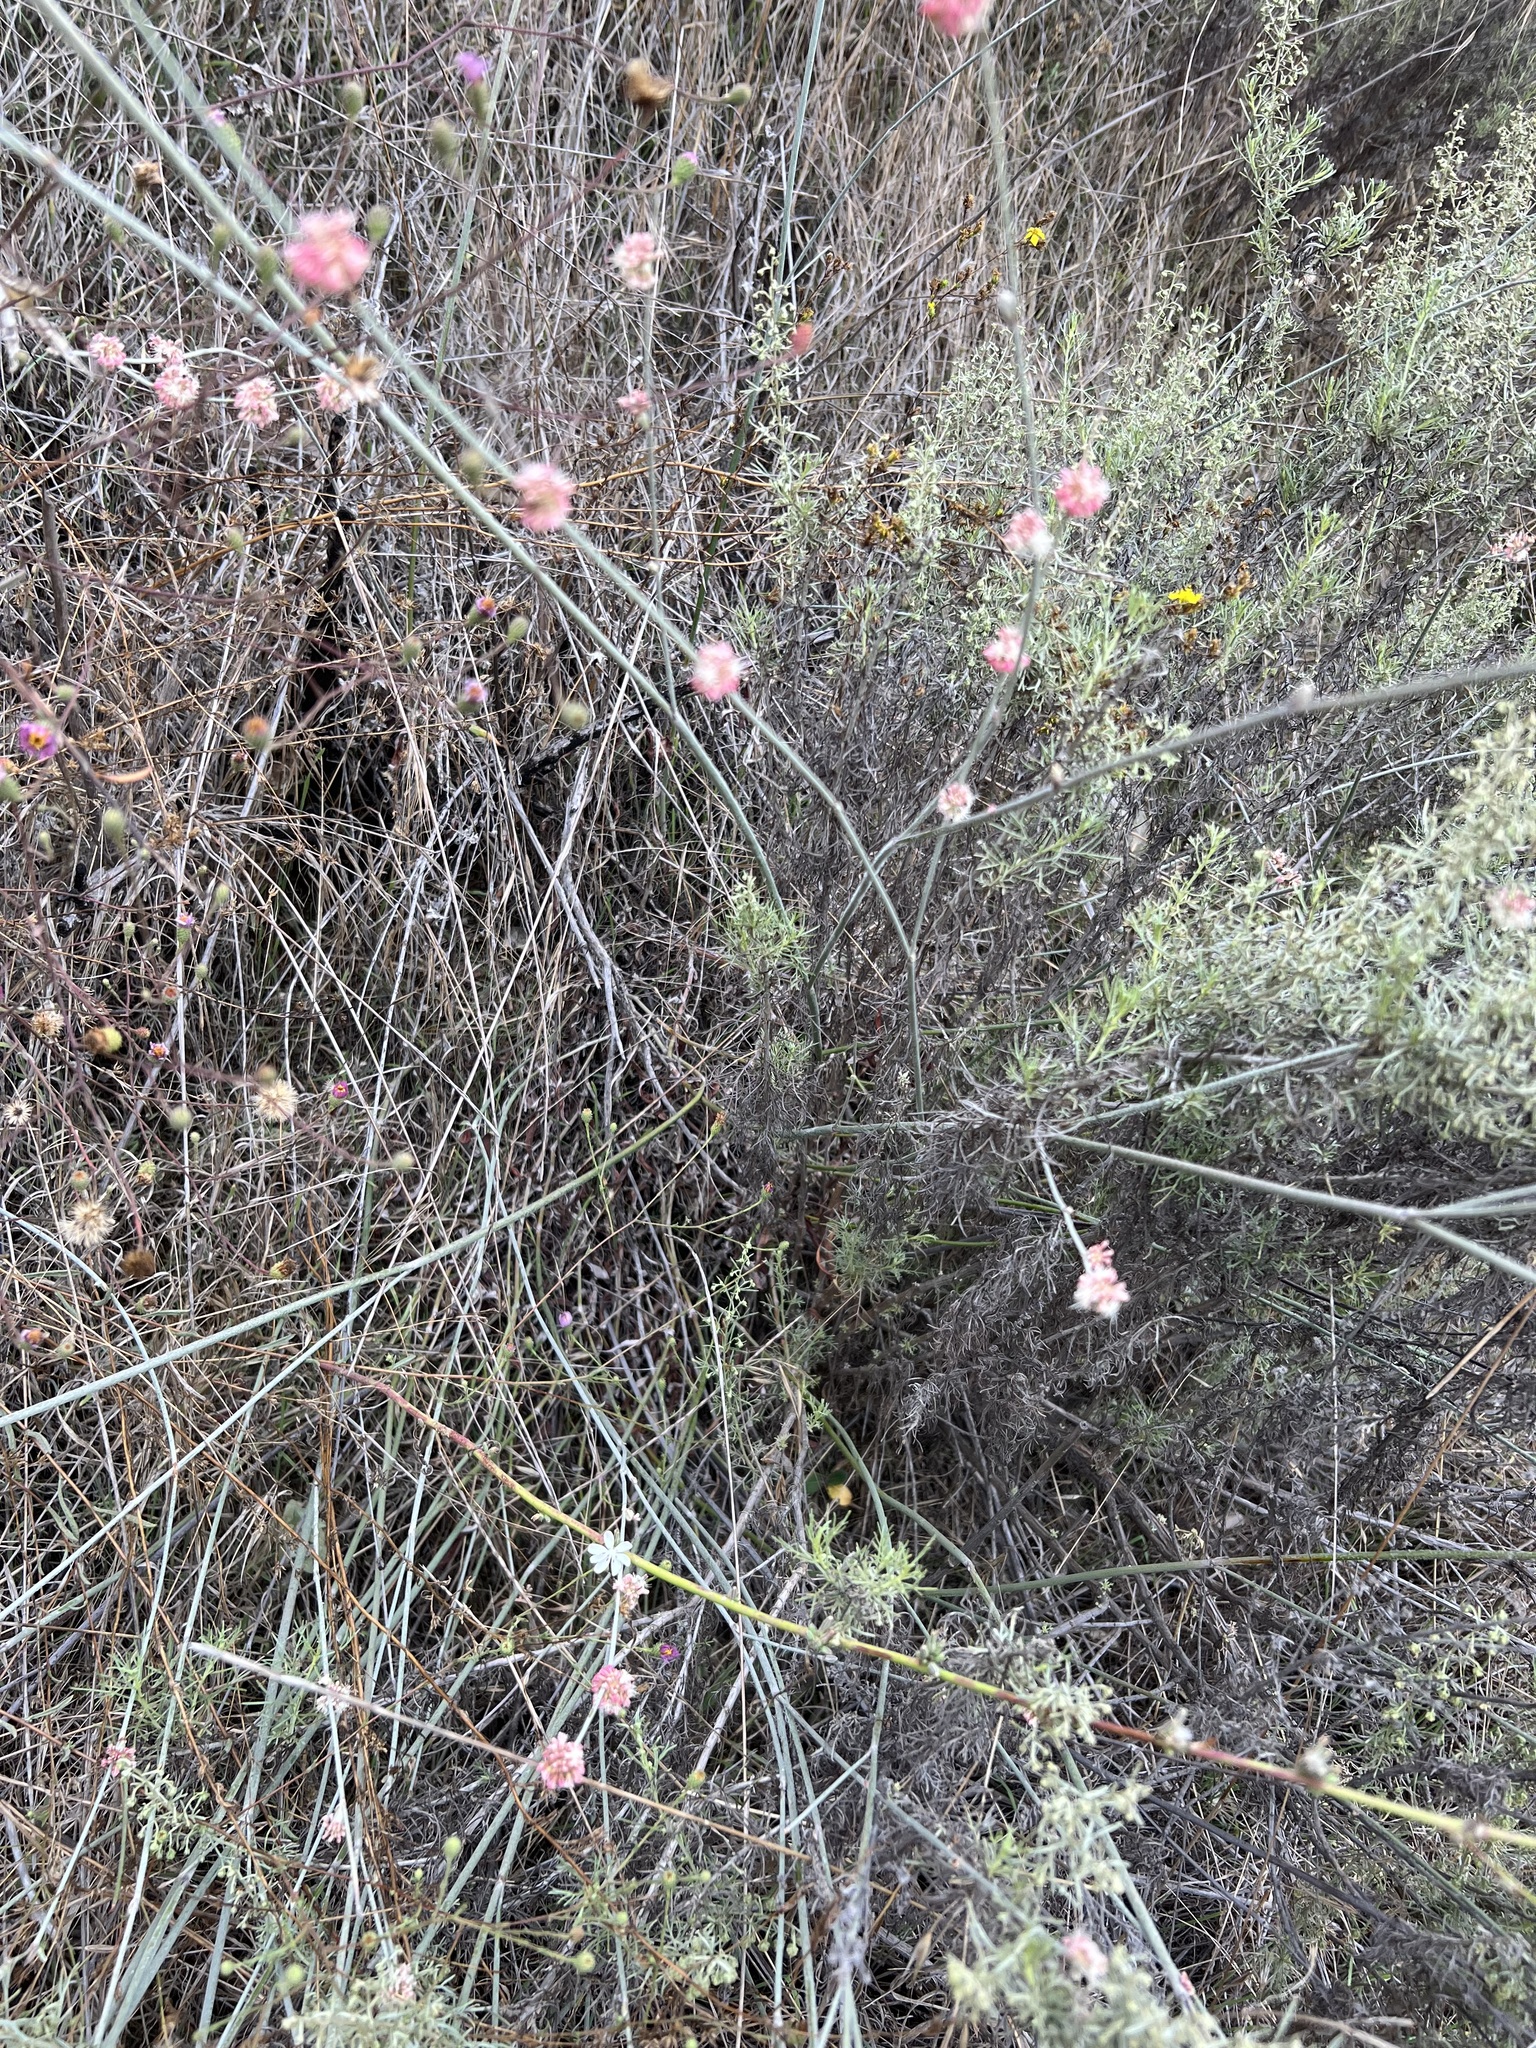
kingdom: Plantae
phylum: Tracheophyta
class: Magnoliopsida
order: Caryophyllales
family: Polygonaceae
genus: Eriogonum
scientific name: Eriogonum elongatum
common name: Long-stem wild buckwheat
